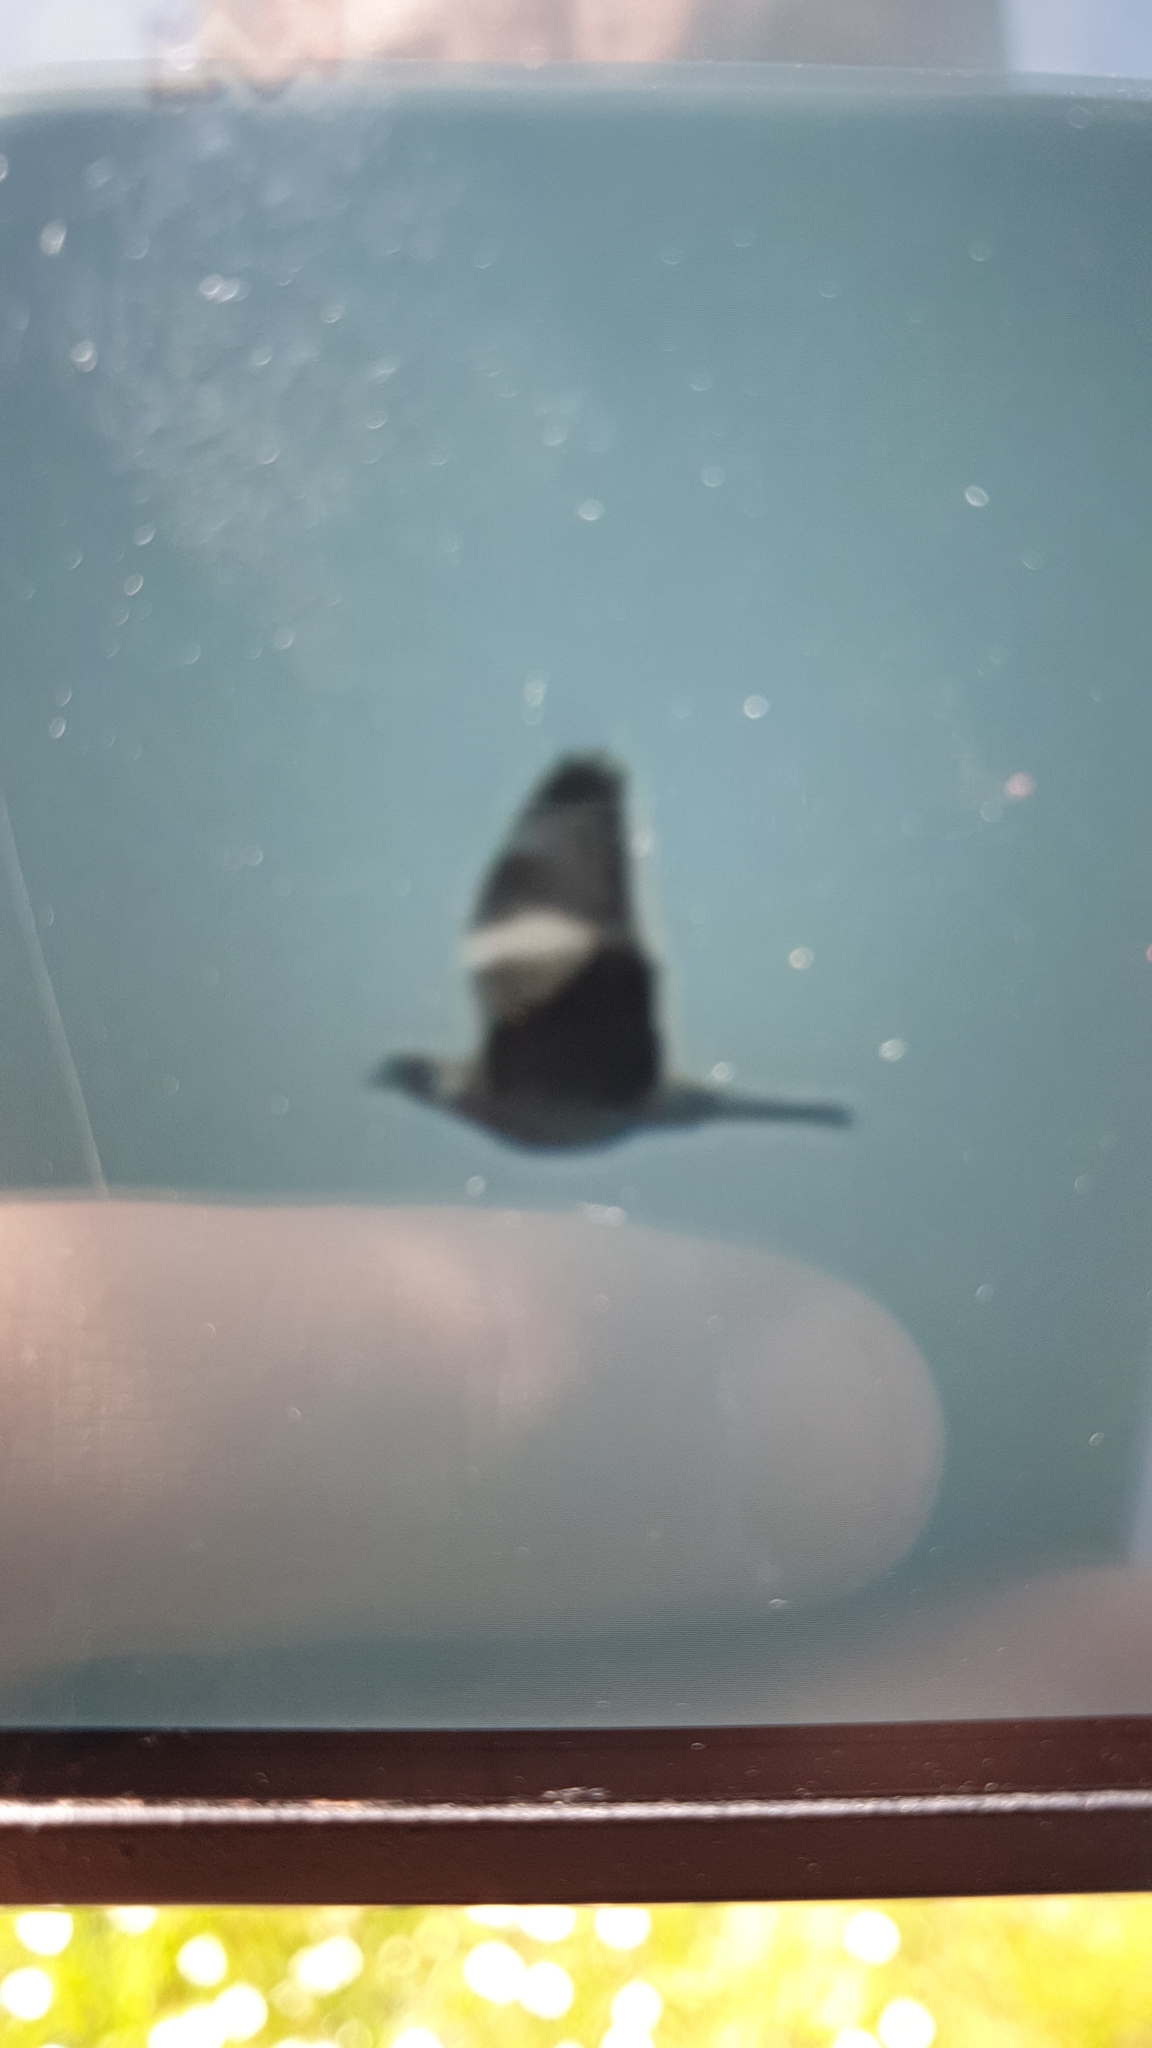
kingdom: Animalia
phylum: Chordata
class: Aves
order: Columbiformes
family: Columbidae
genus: Columba
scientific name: Columba palumbus
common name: Common wood pigeon
